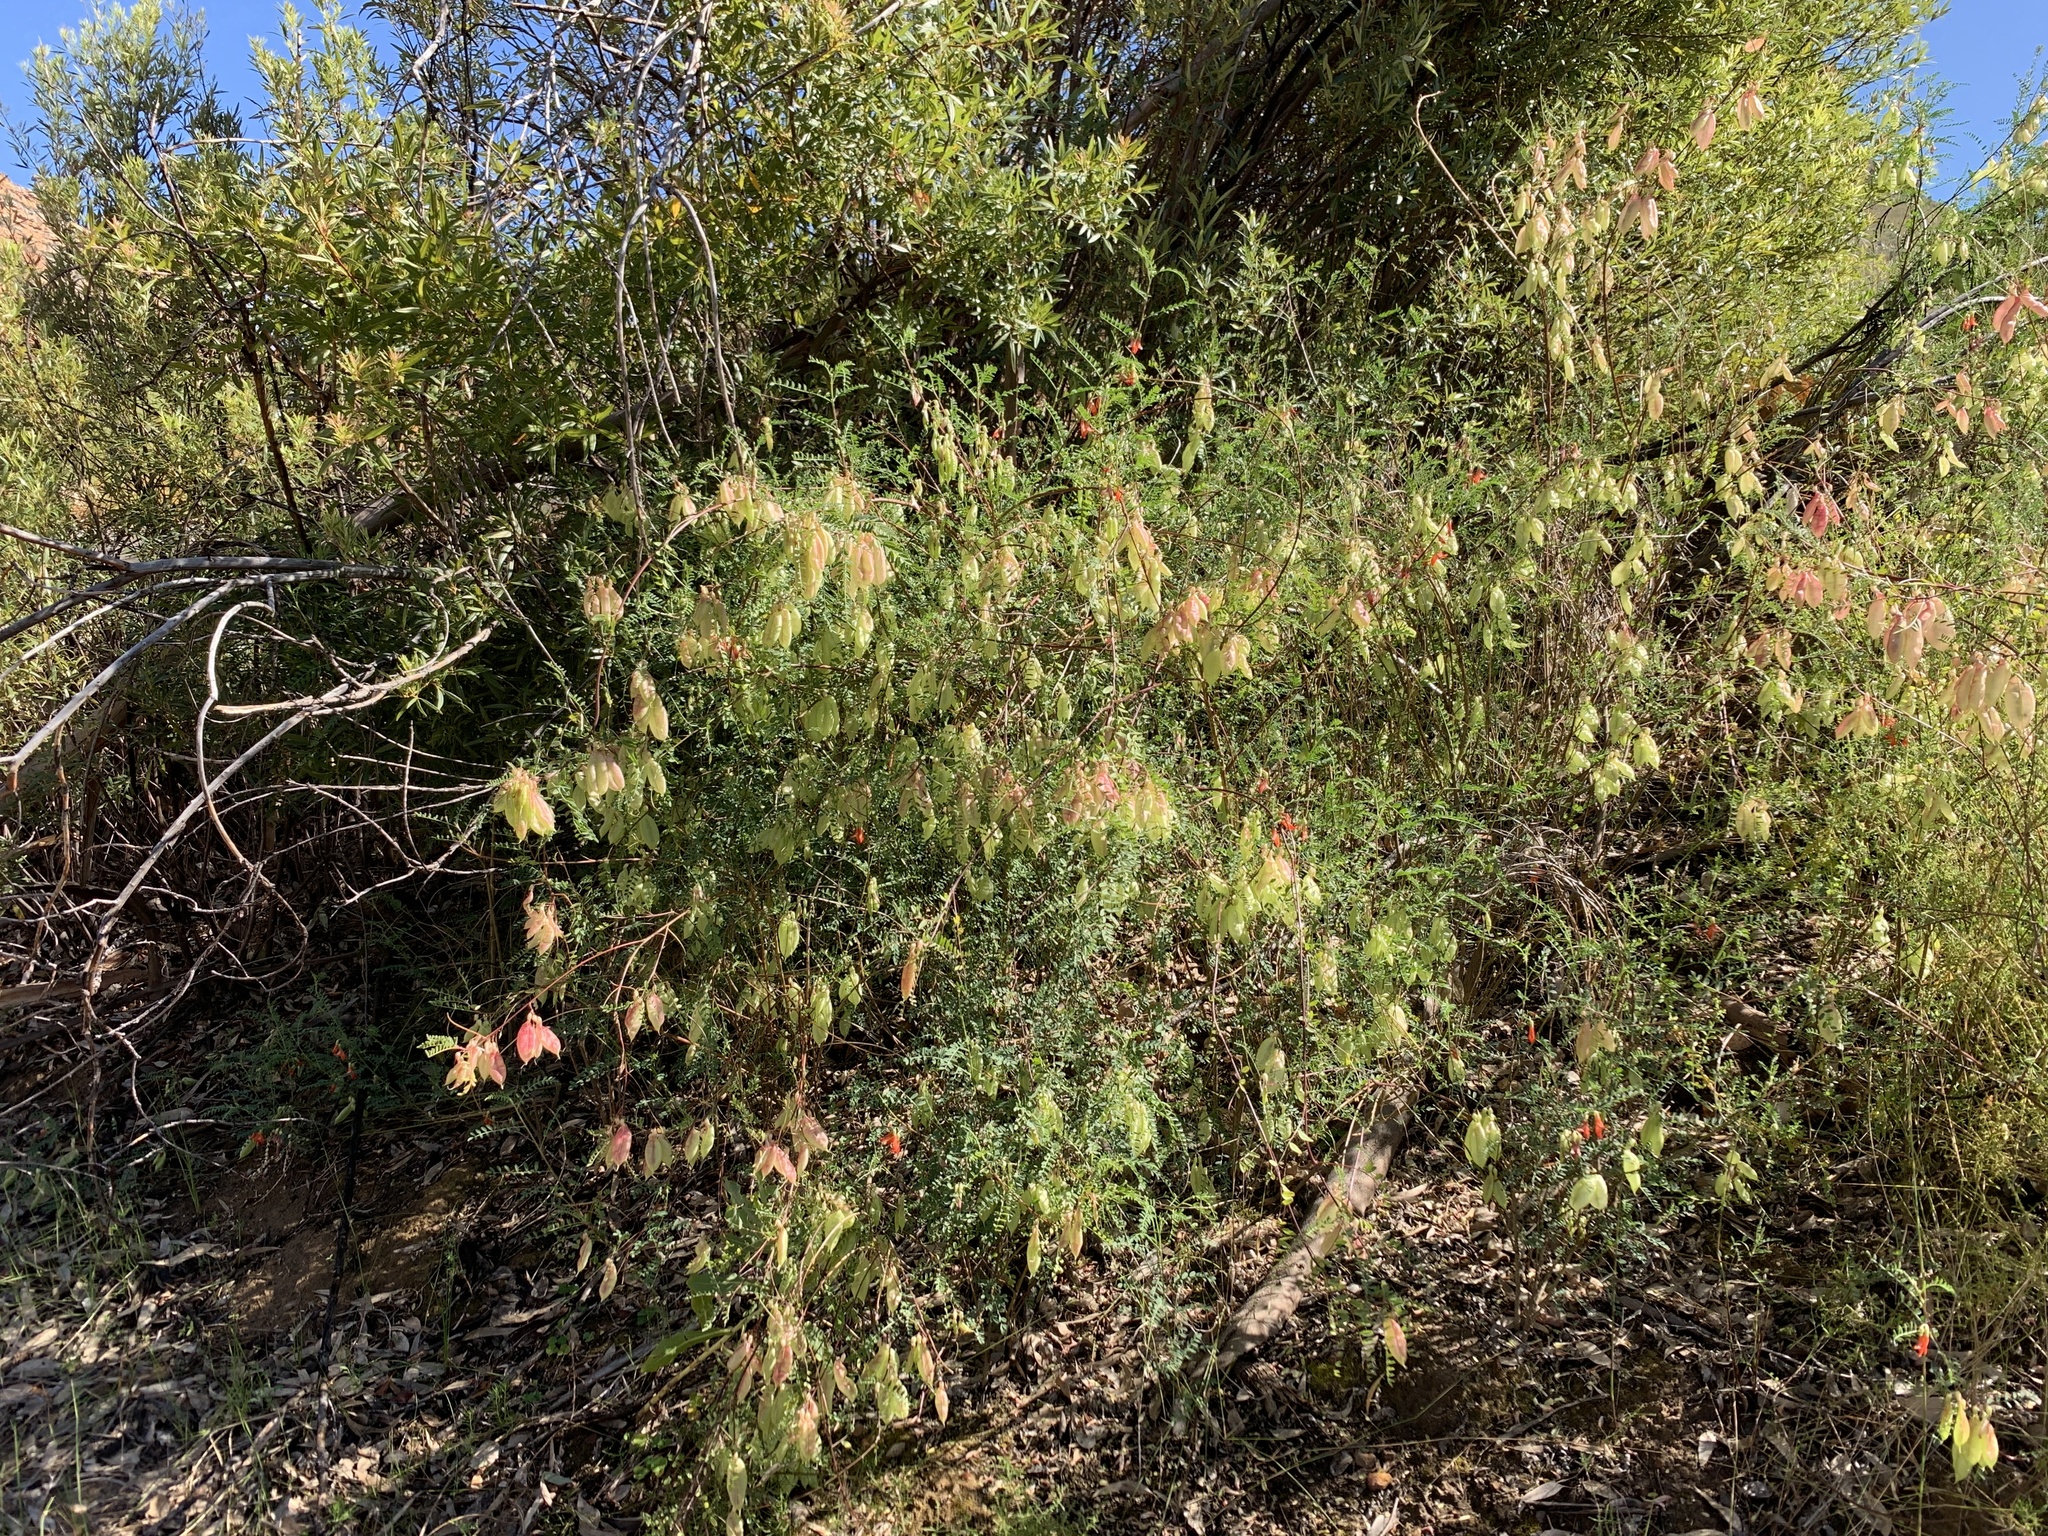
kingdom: Plantae
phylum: Tracheophyta
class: Magnoliopsida
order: Fabales
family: Fabaceae
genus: Lessertia
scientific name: Lessertia frutescens
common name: Balloon-pea
